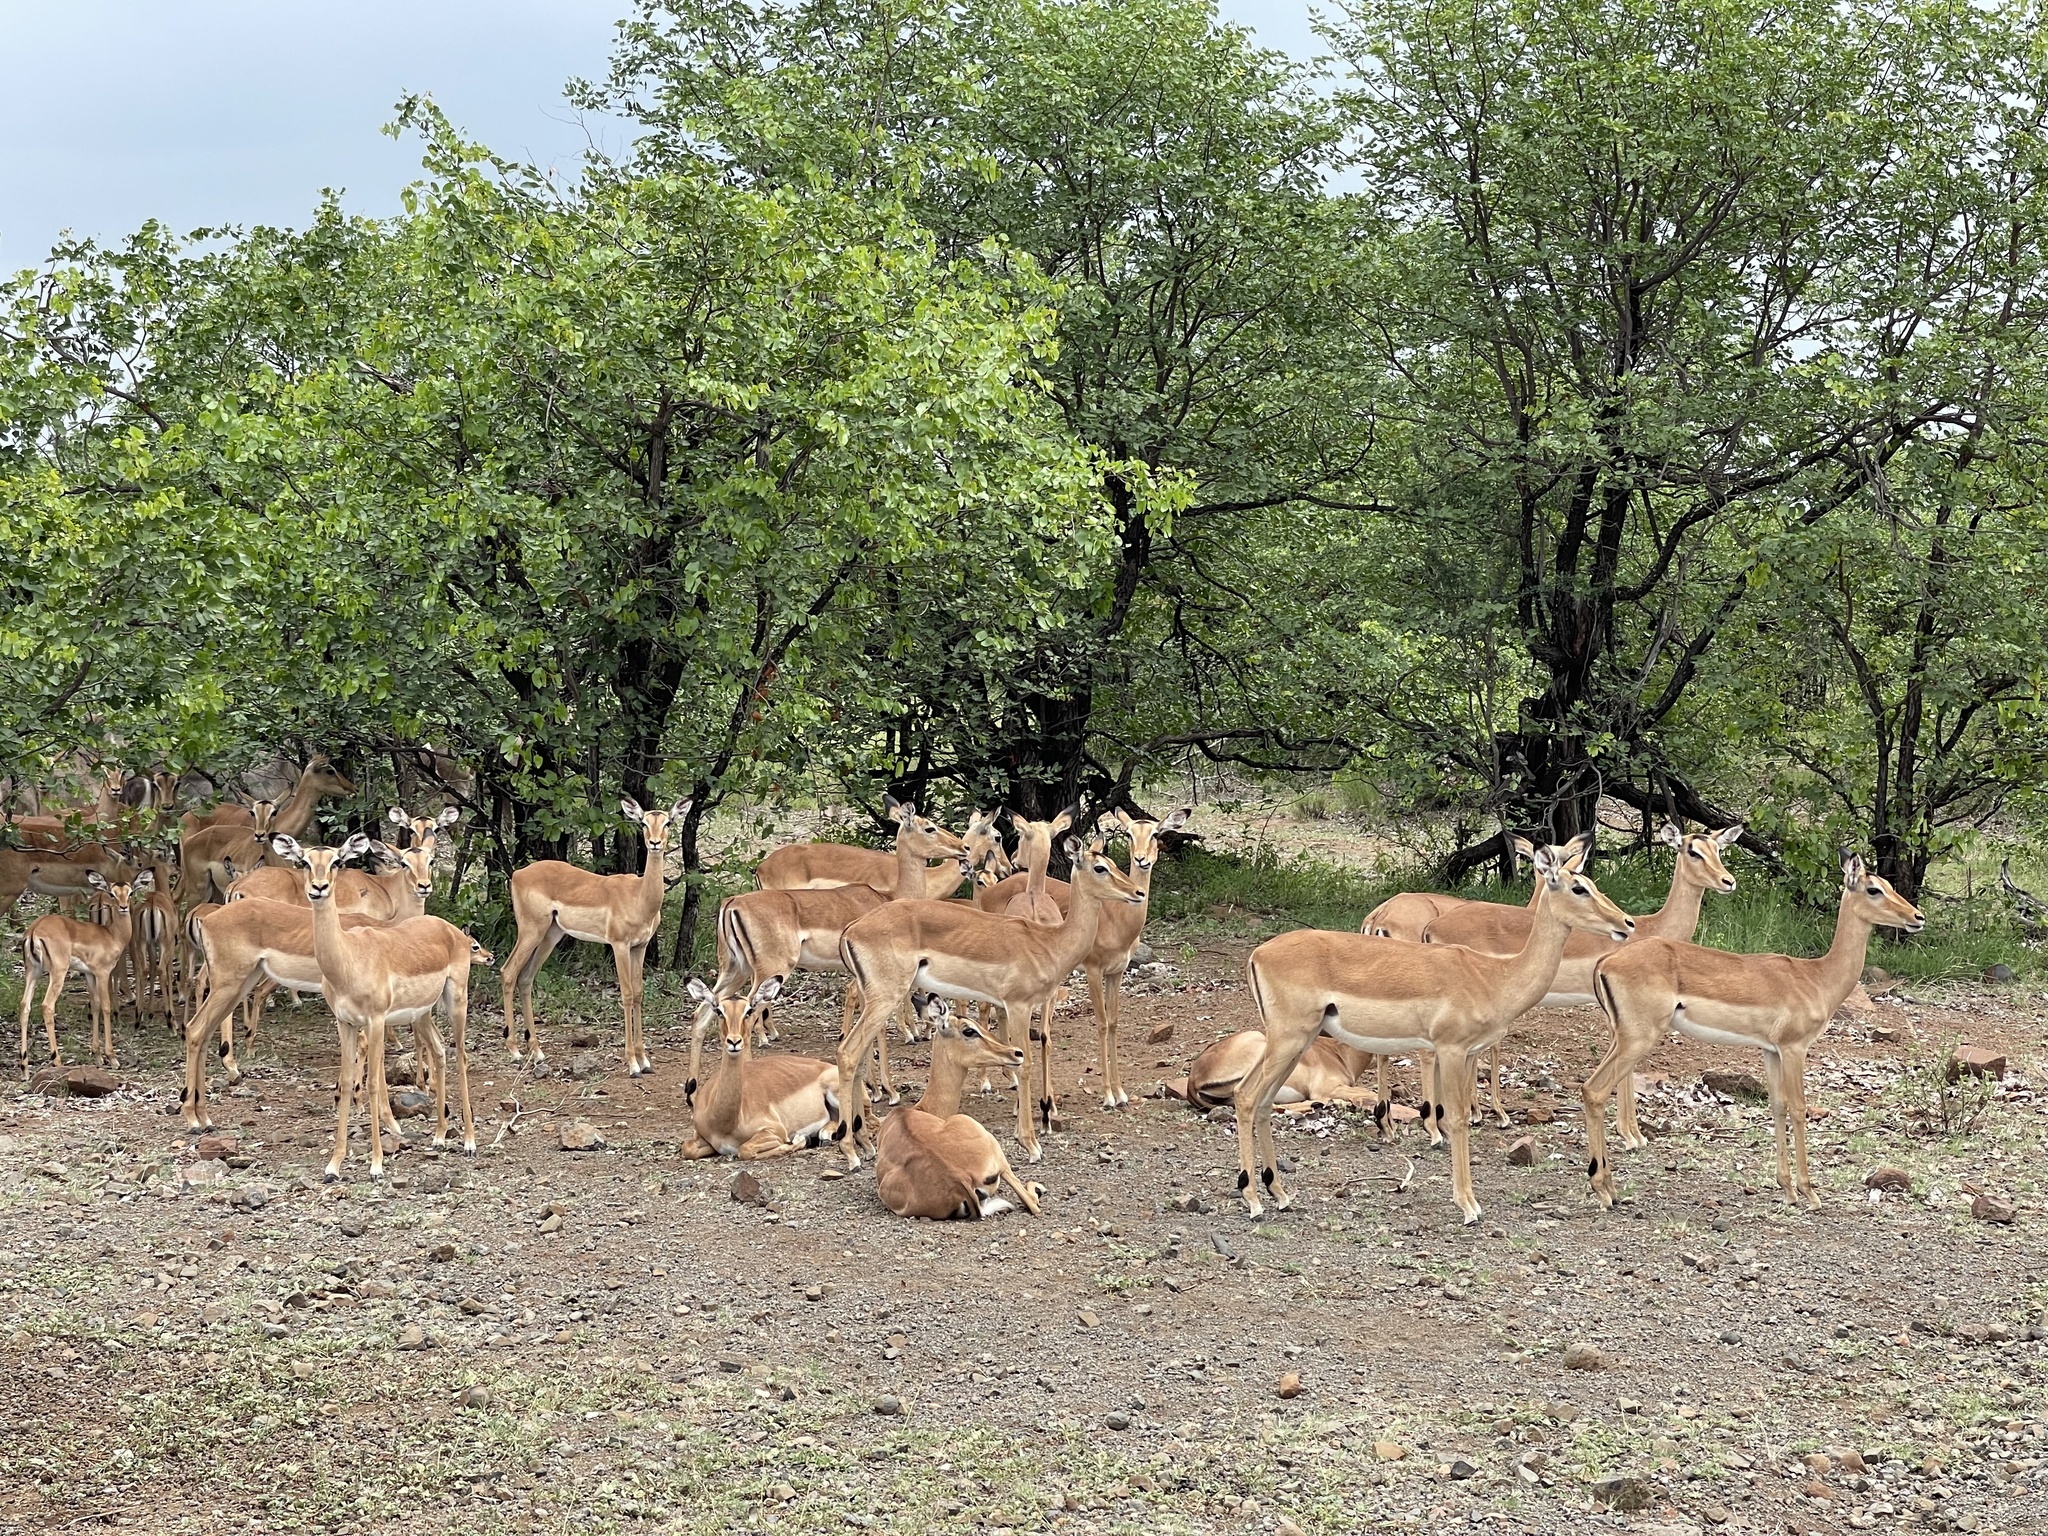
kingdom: Animalia
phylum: Chordata
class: Mammalia
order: Artiodactyla
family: Bovidae
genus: Aepyceros
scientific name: Aepyceros melampus
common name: Impala
